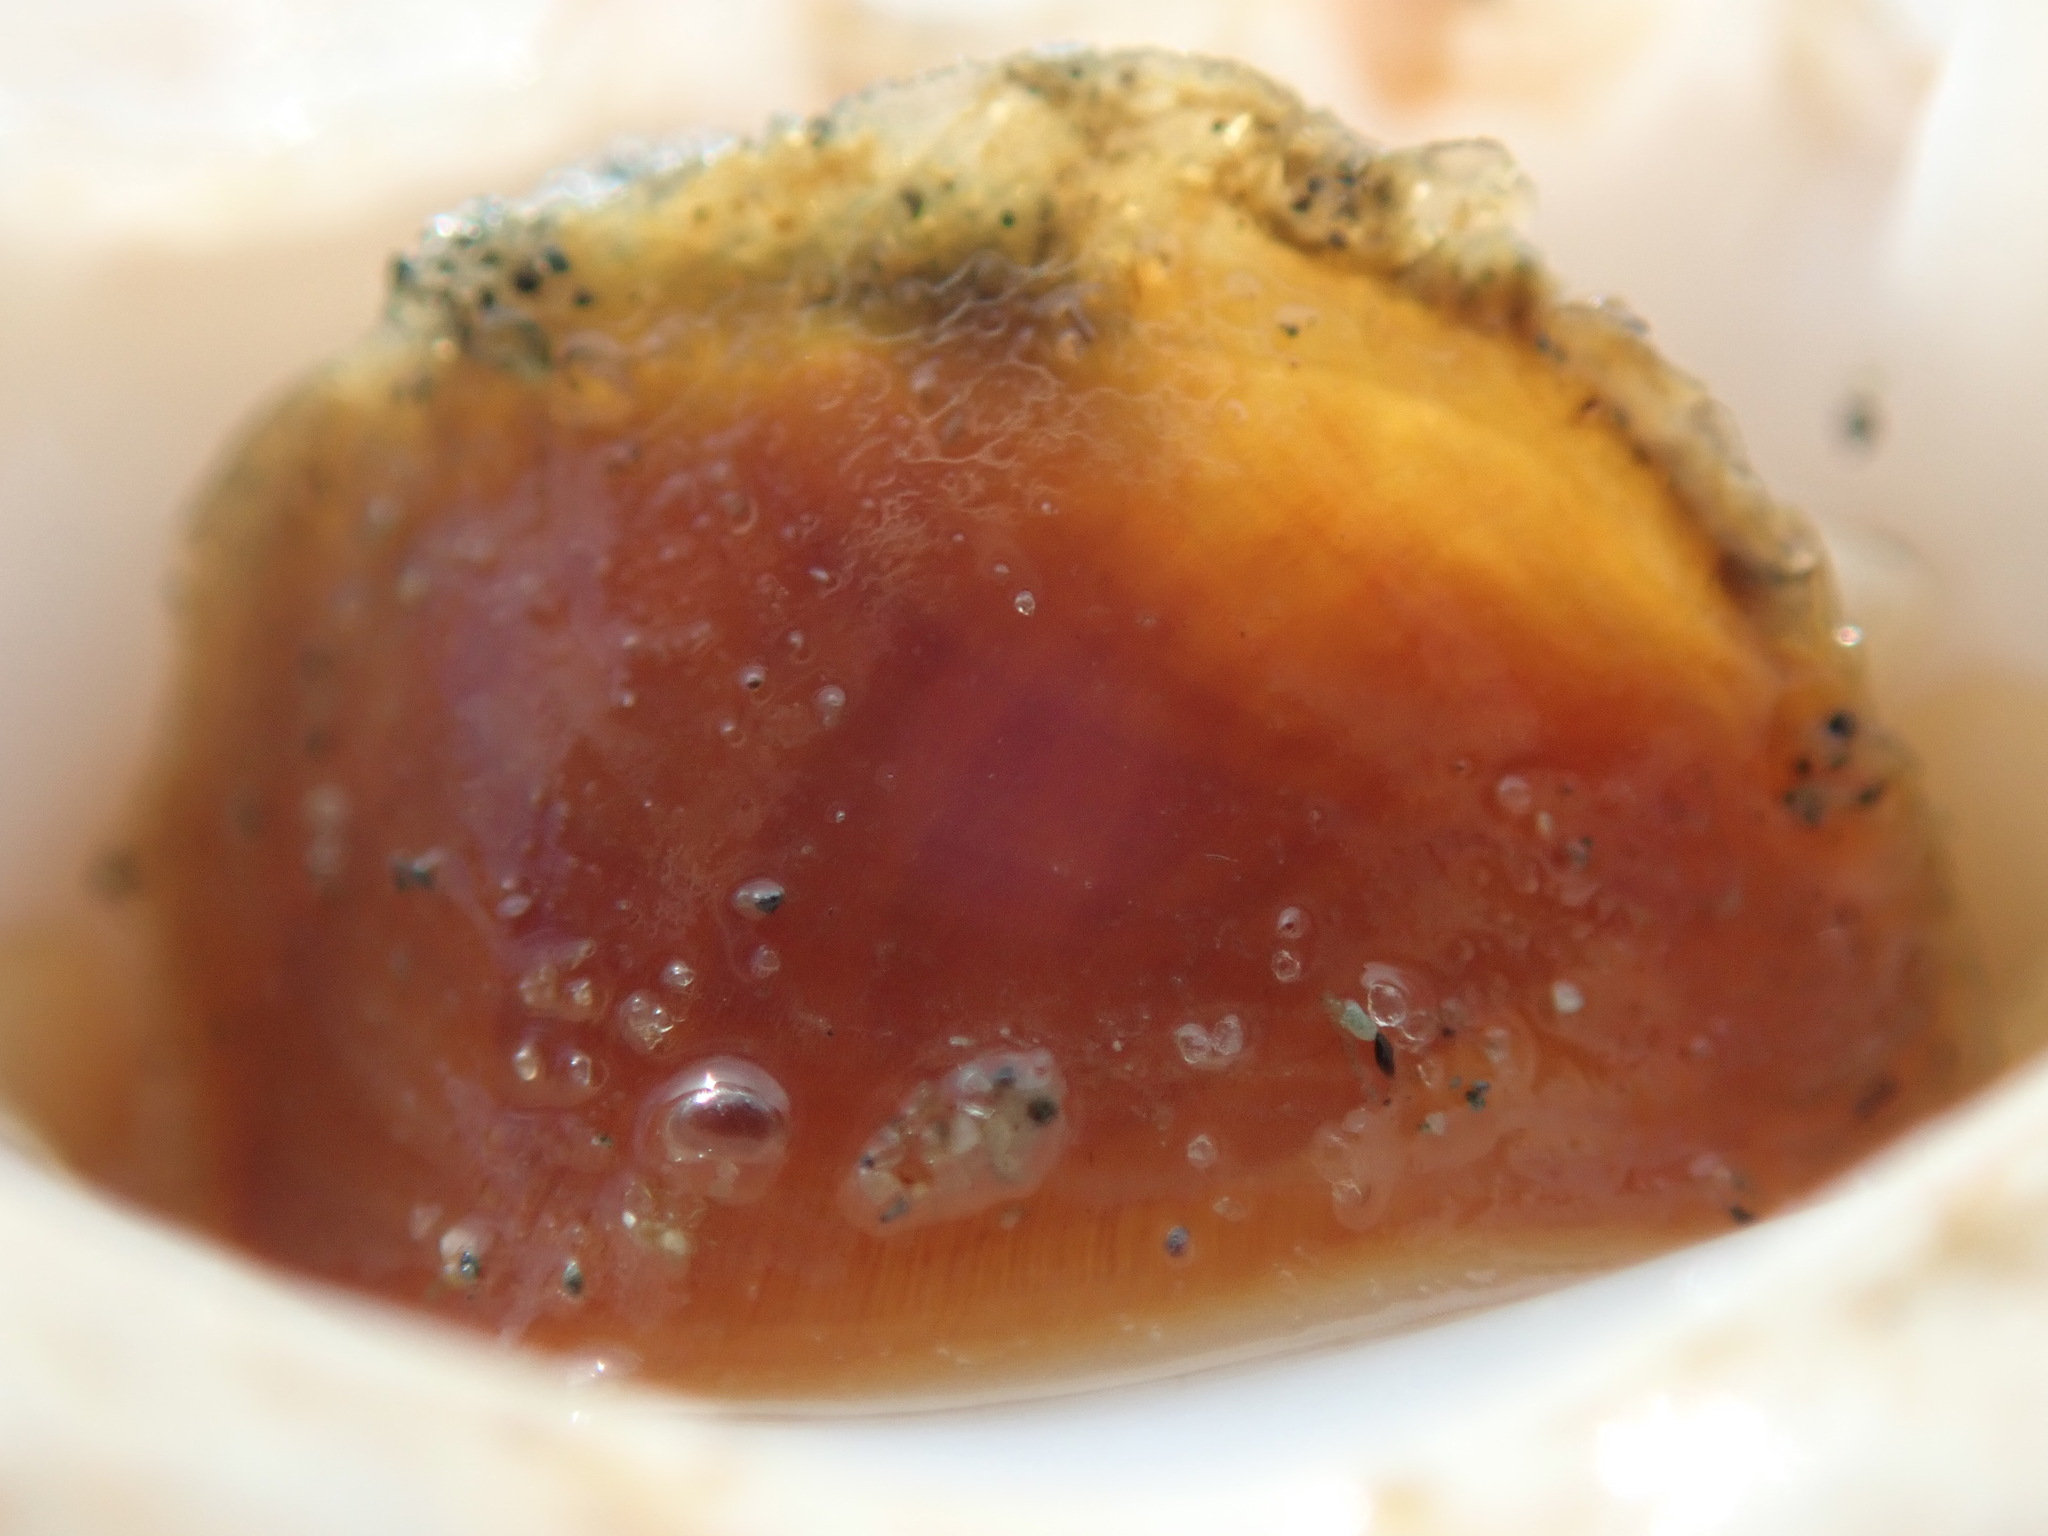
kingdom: Animalia
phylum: Mollusca
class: Gastropoda
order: Neogastropoda
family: Muricidae
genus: Ceratostoma
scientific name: Ceratostoma foliatum
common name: Foliate thorn purpura
